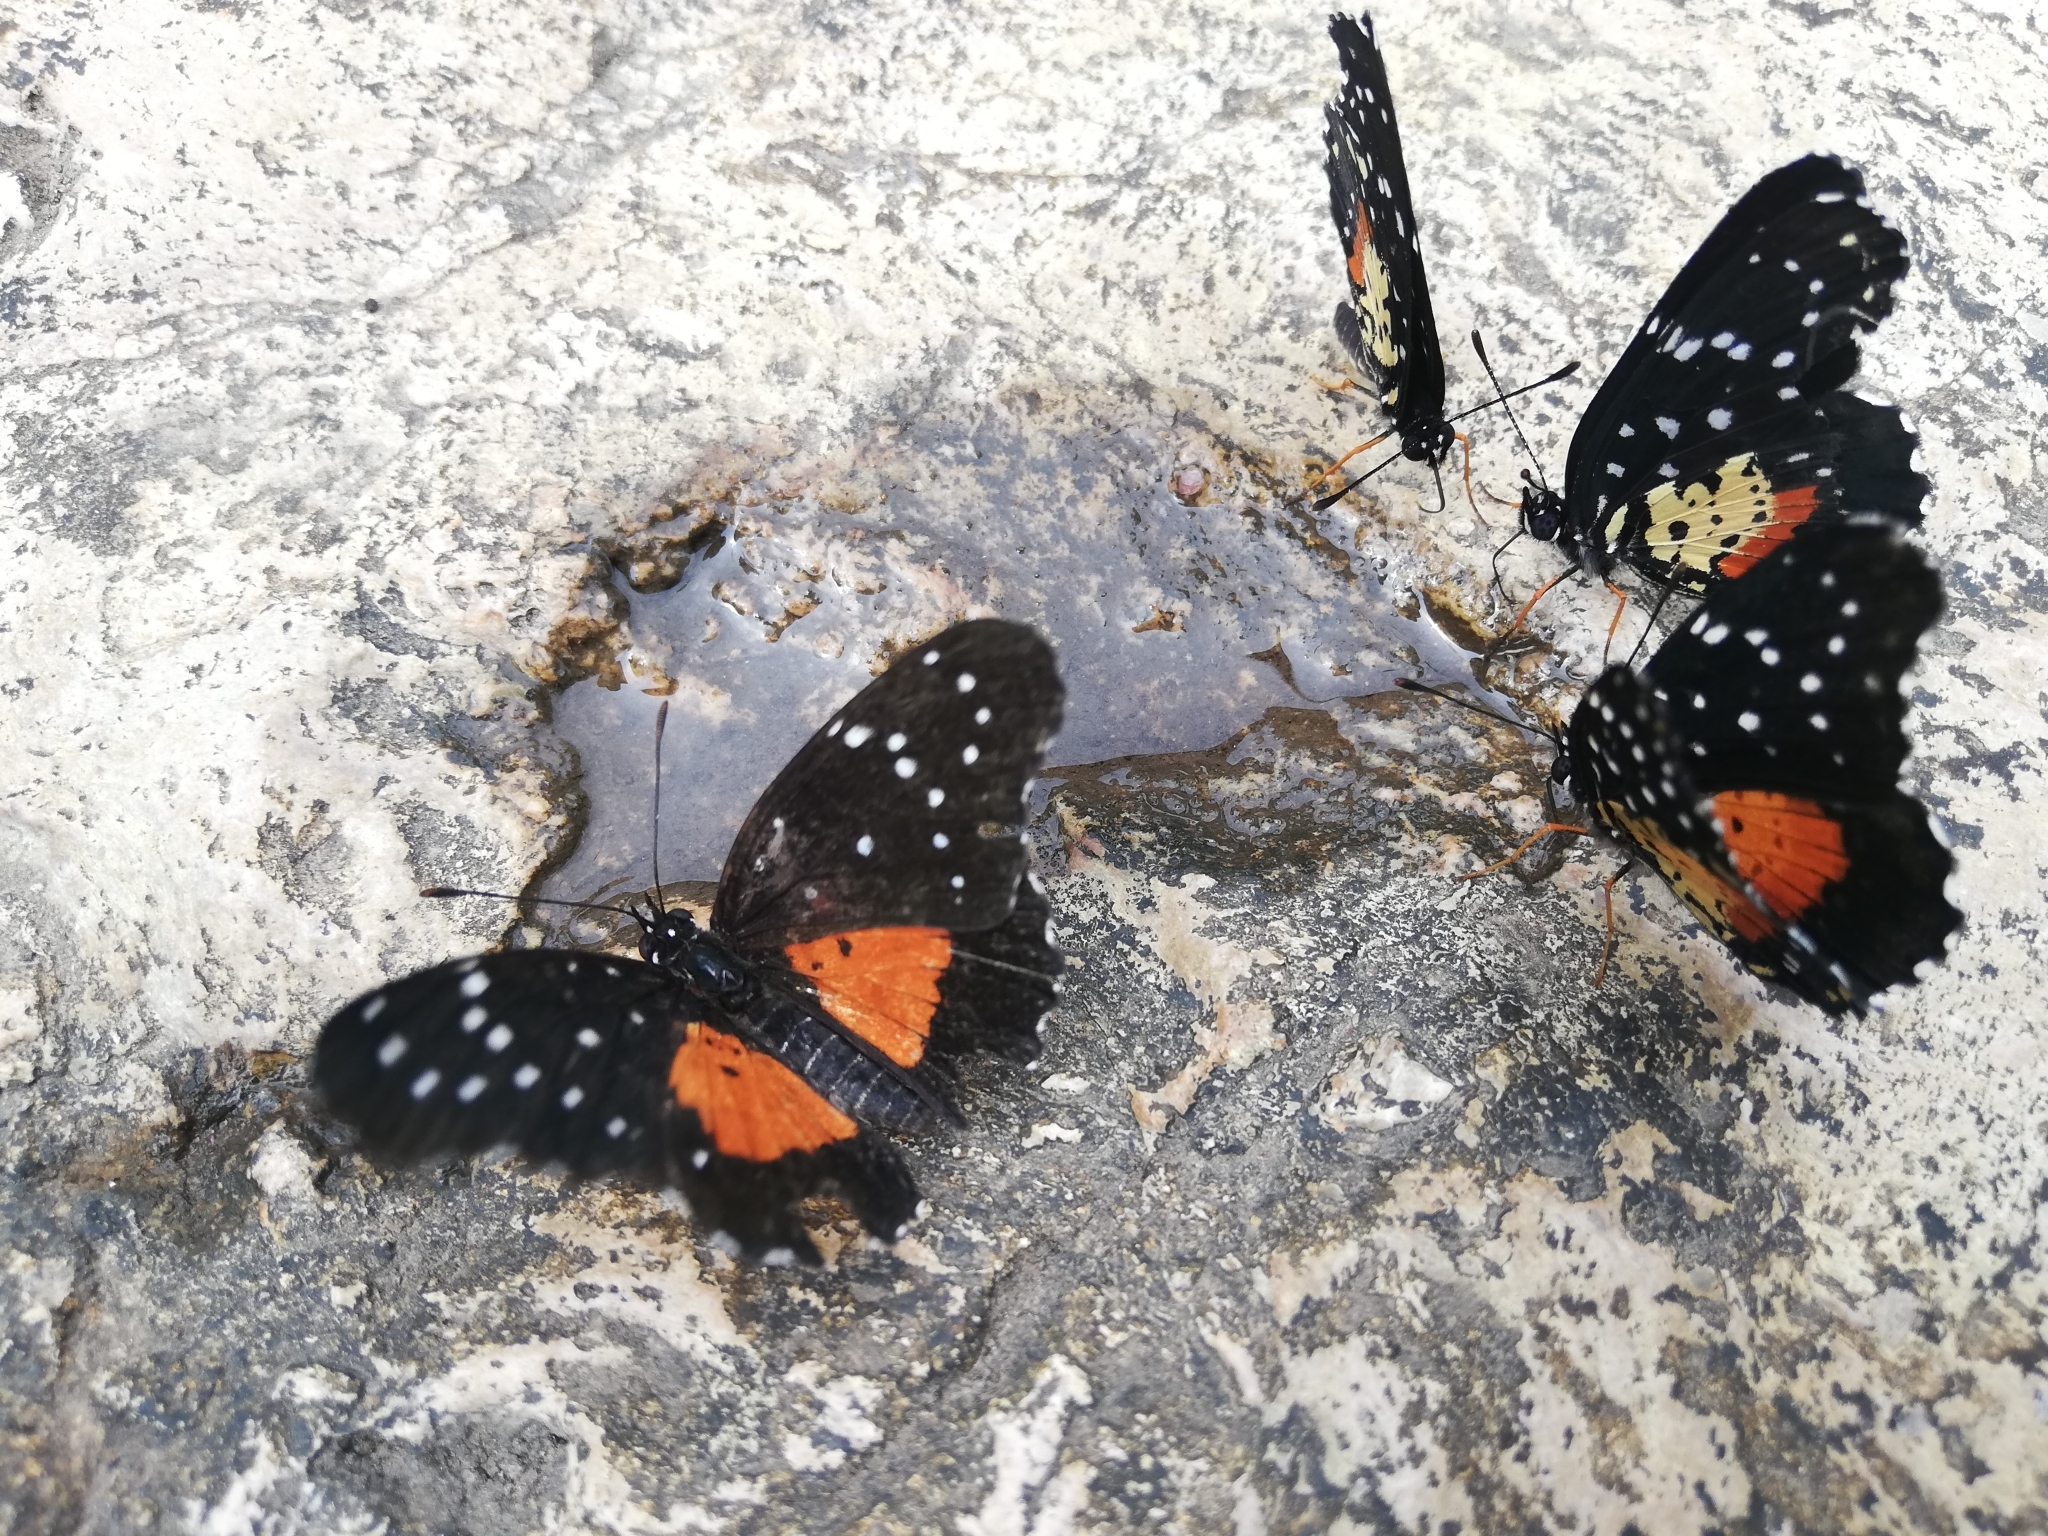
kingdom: Animalia
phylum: Arthropoda
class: Insecta
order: Lepidoptera
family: Nymphalidae
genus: Chlosyne
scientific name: Chlosyne janais
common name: Crimson patch
